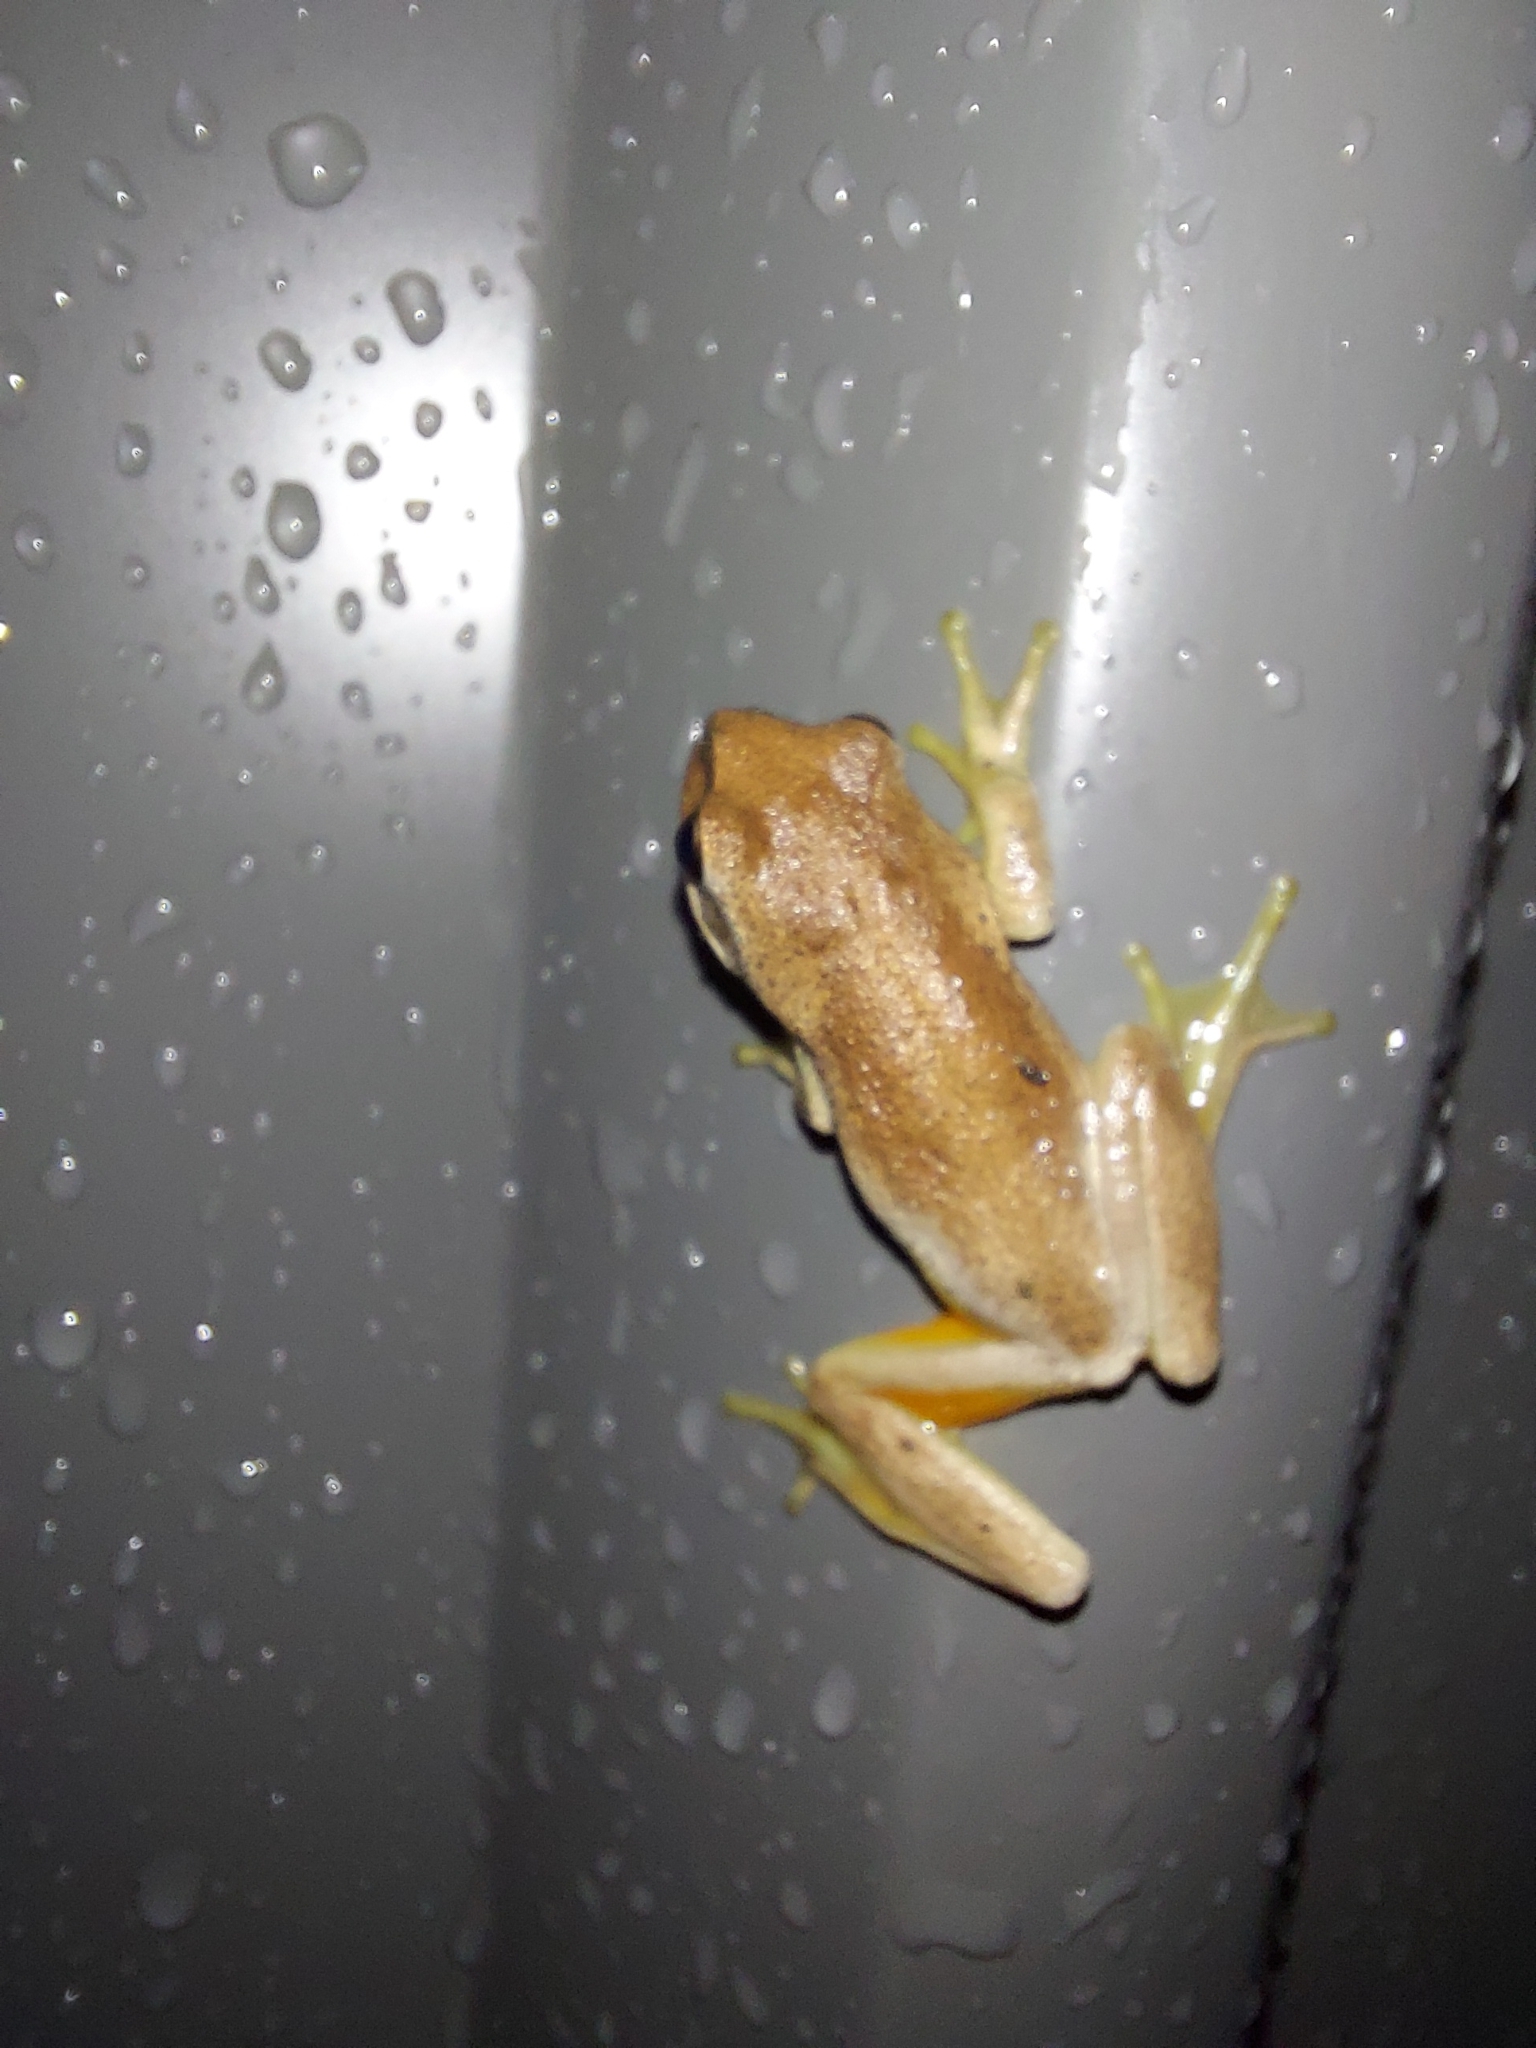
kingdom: Animalia
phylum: Chordata
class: Amphibia
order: Anura
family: Pelodryadidae
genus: Litoria
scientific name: Litoria ewingii
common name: Southern brown tree frog
